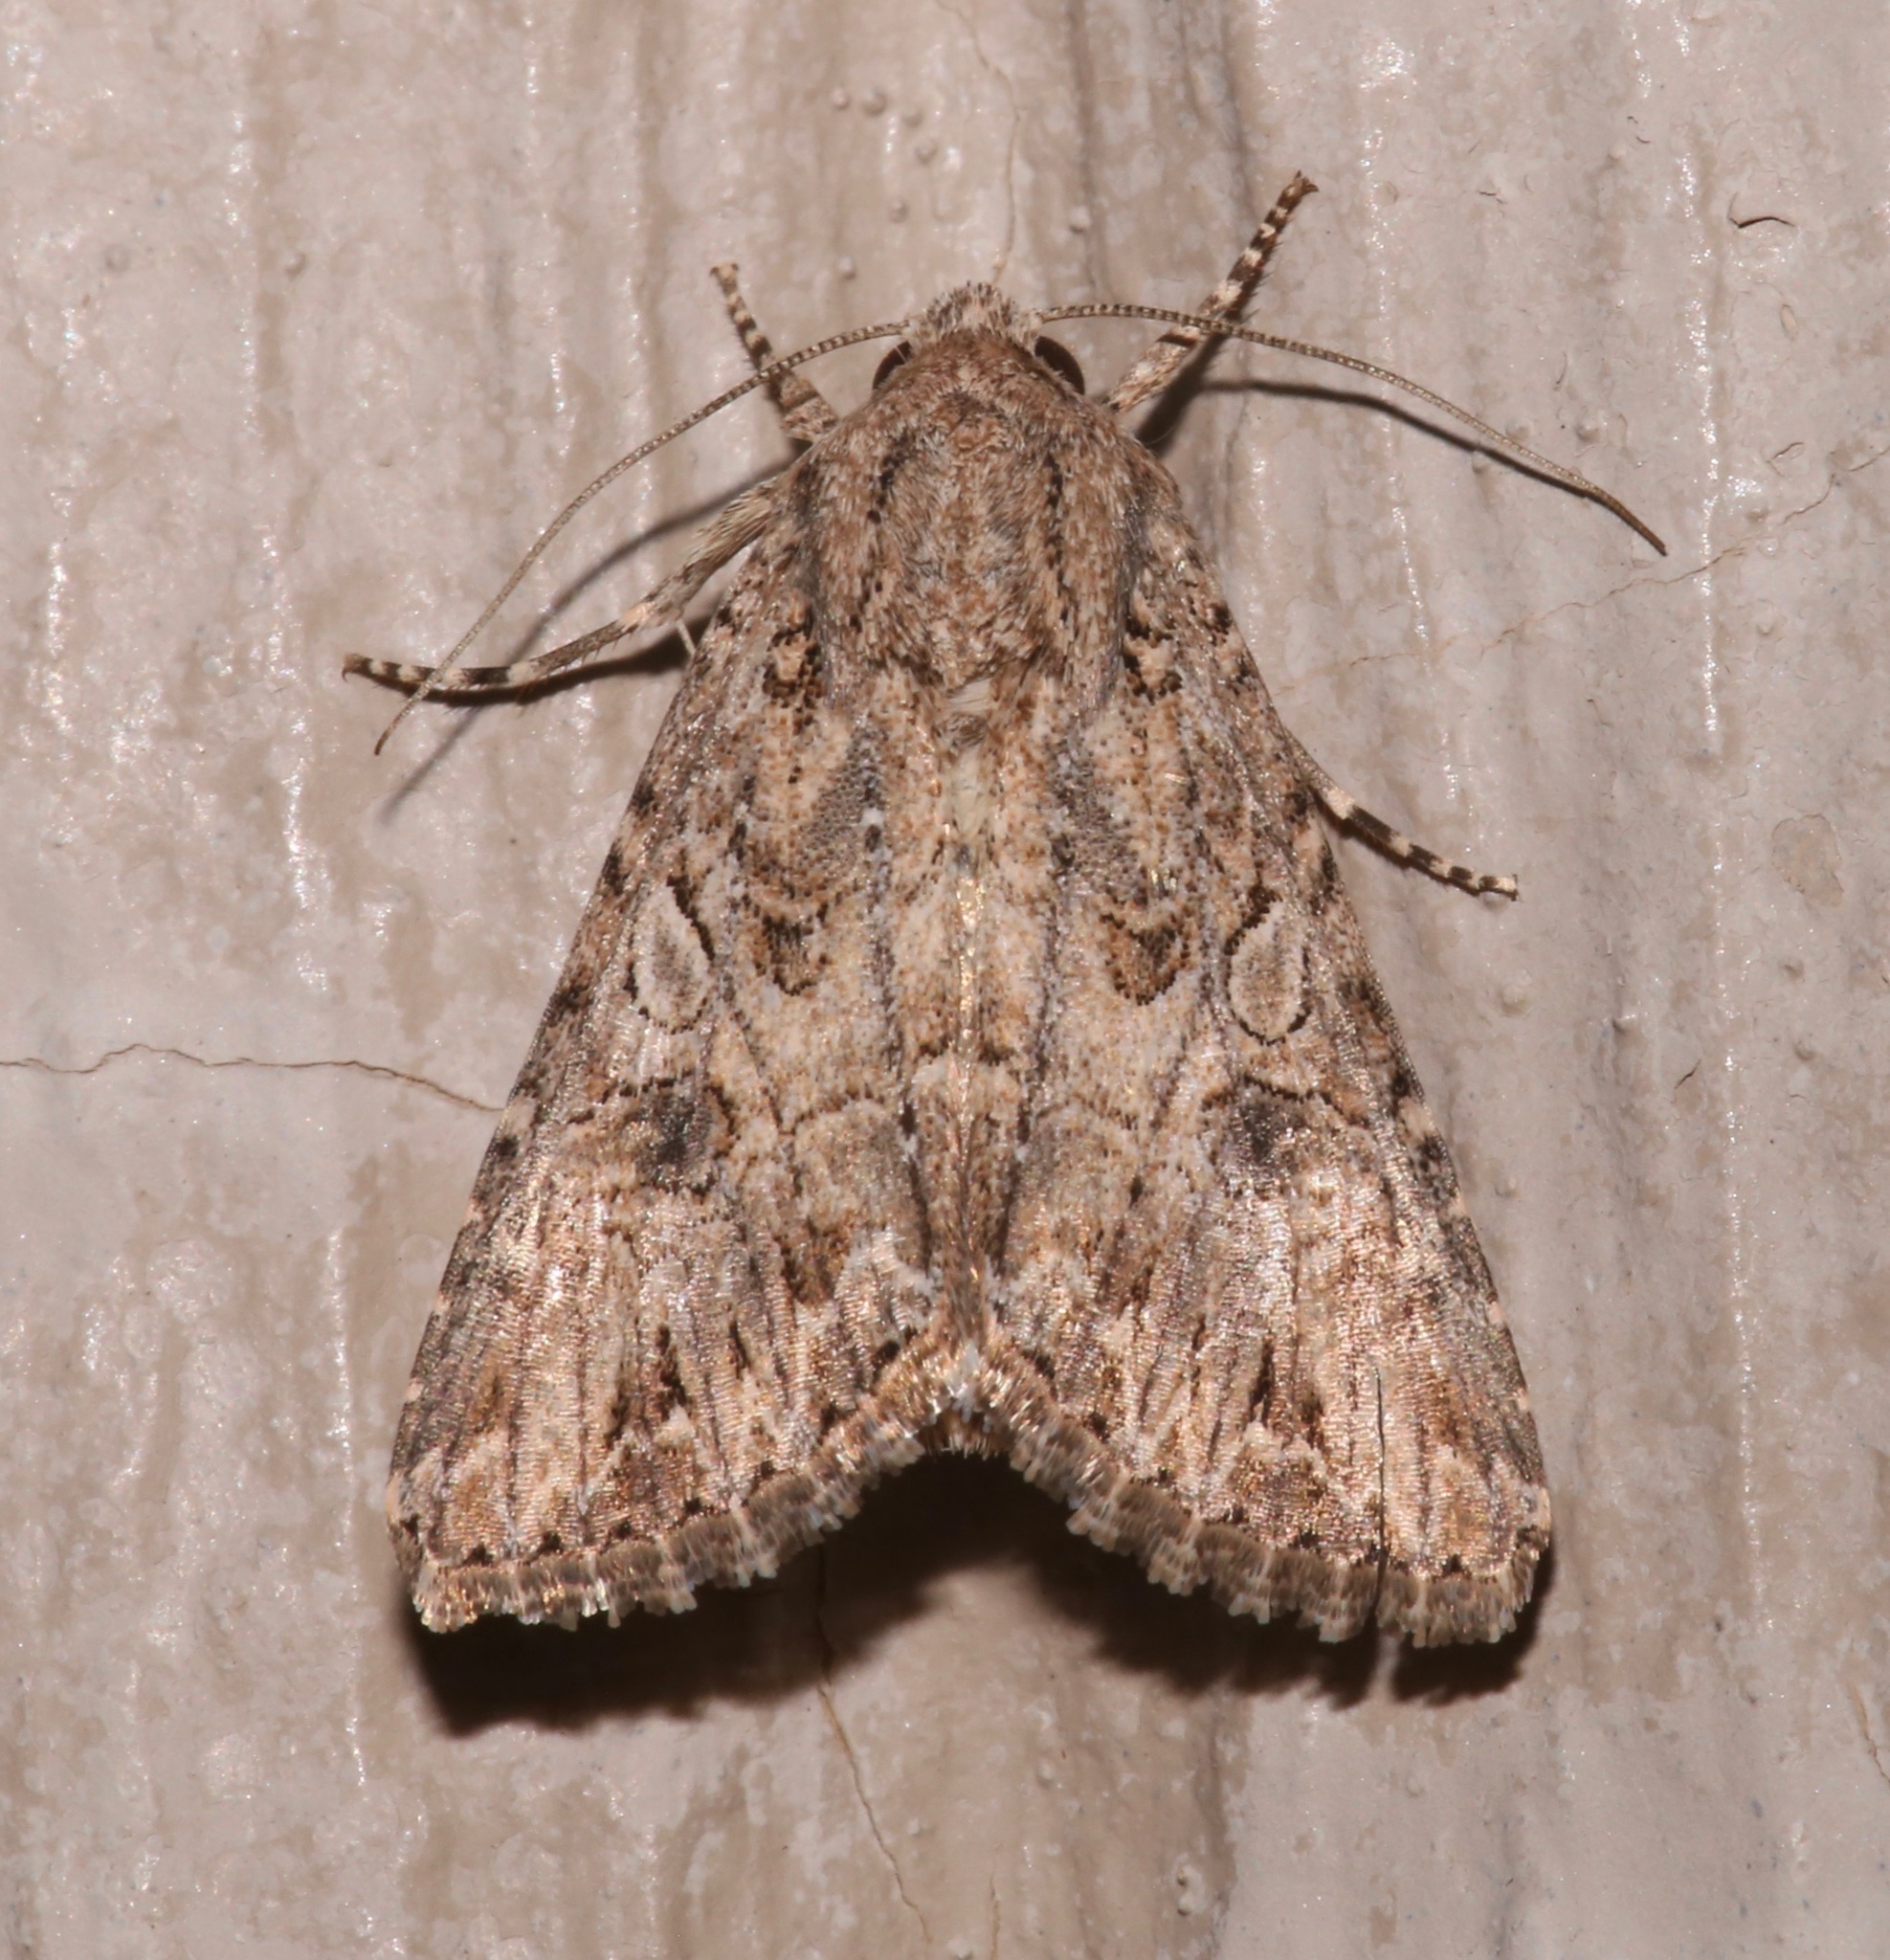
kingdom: Animalia
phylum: Arthropoda
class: Insecta
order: Lepidoptera
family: Noctuidae
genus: Anarta
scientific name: Anarta trifolii
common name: Clover cutworm moth
